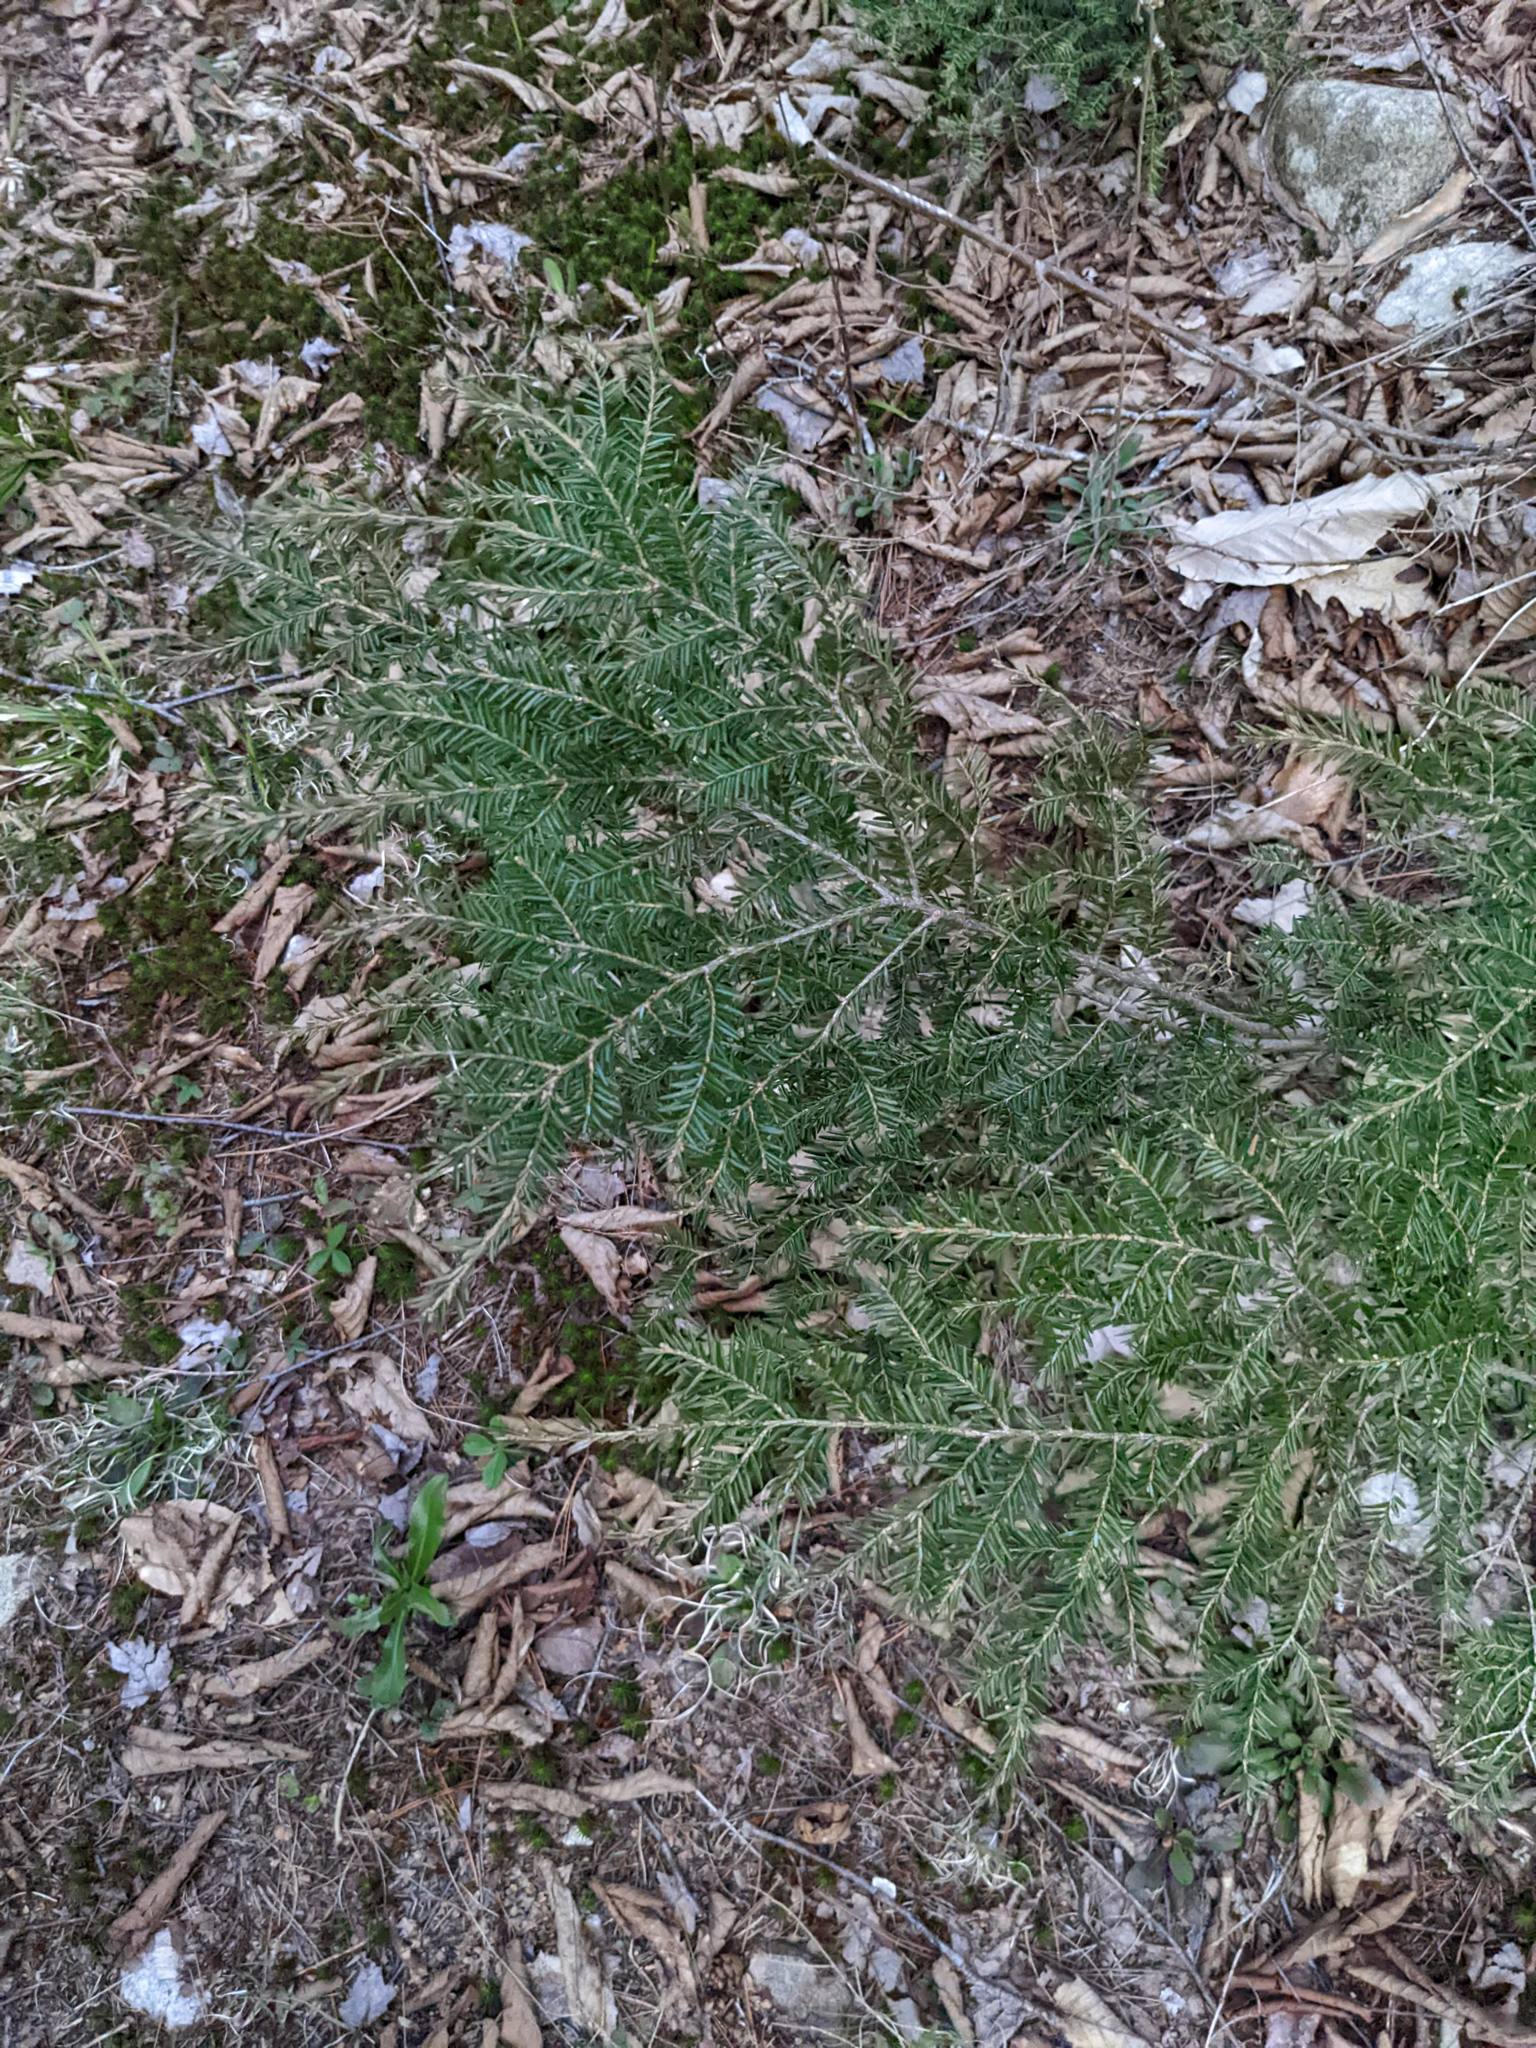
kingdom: Plantae
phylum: Tracheophyta
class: Pinopsida
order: Pinales
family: Pinaceae
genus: Tsuga
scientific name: Tsuga canadensis
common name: Eastern hemlock
